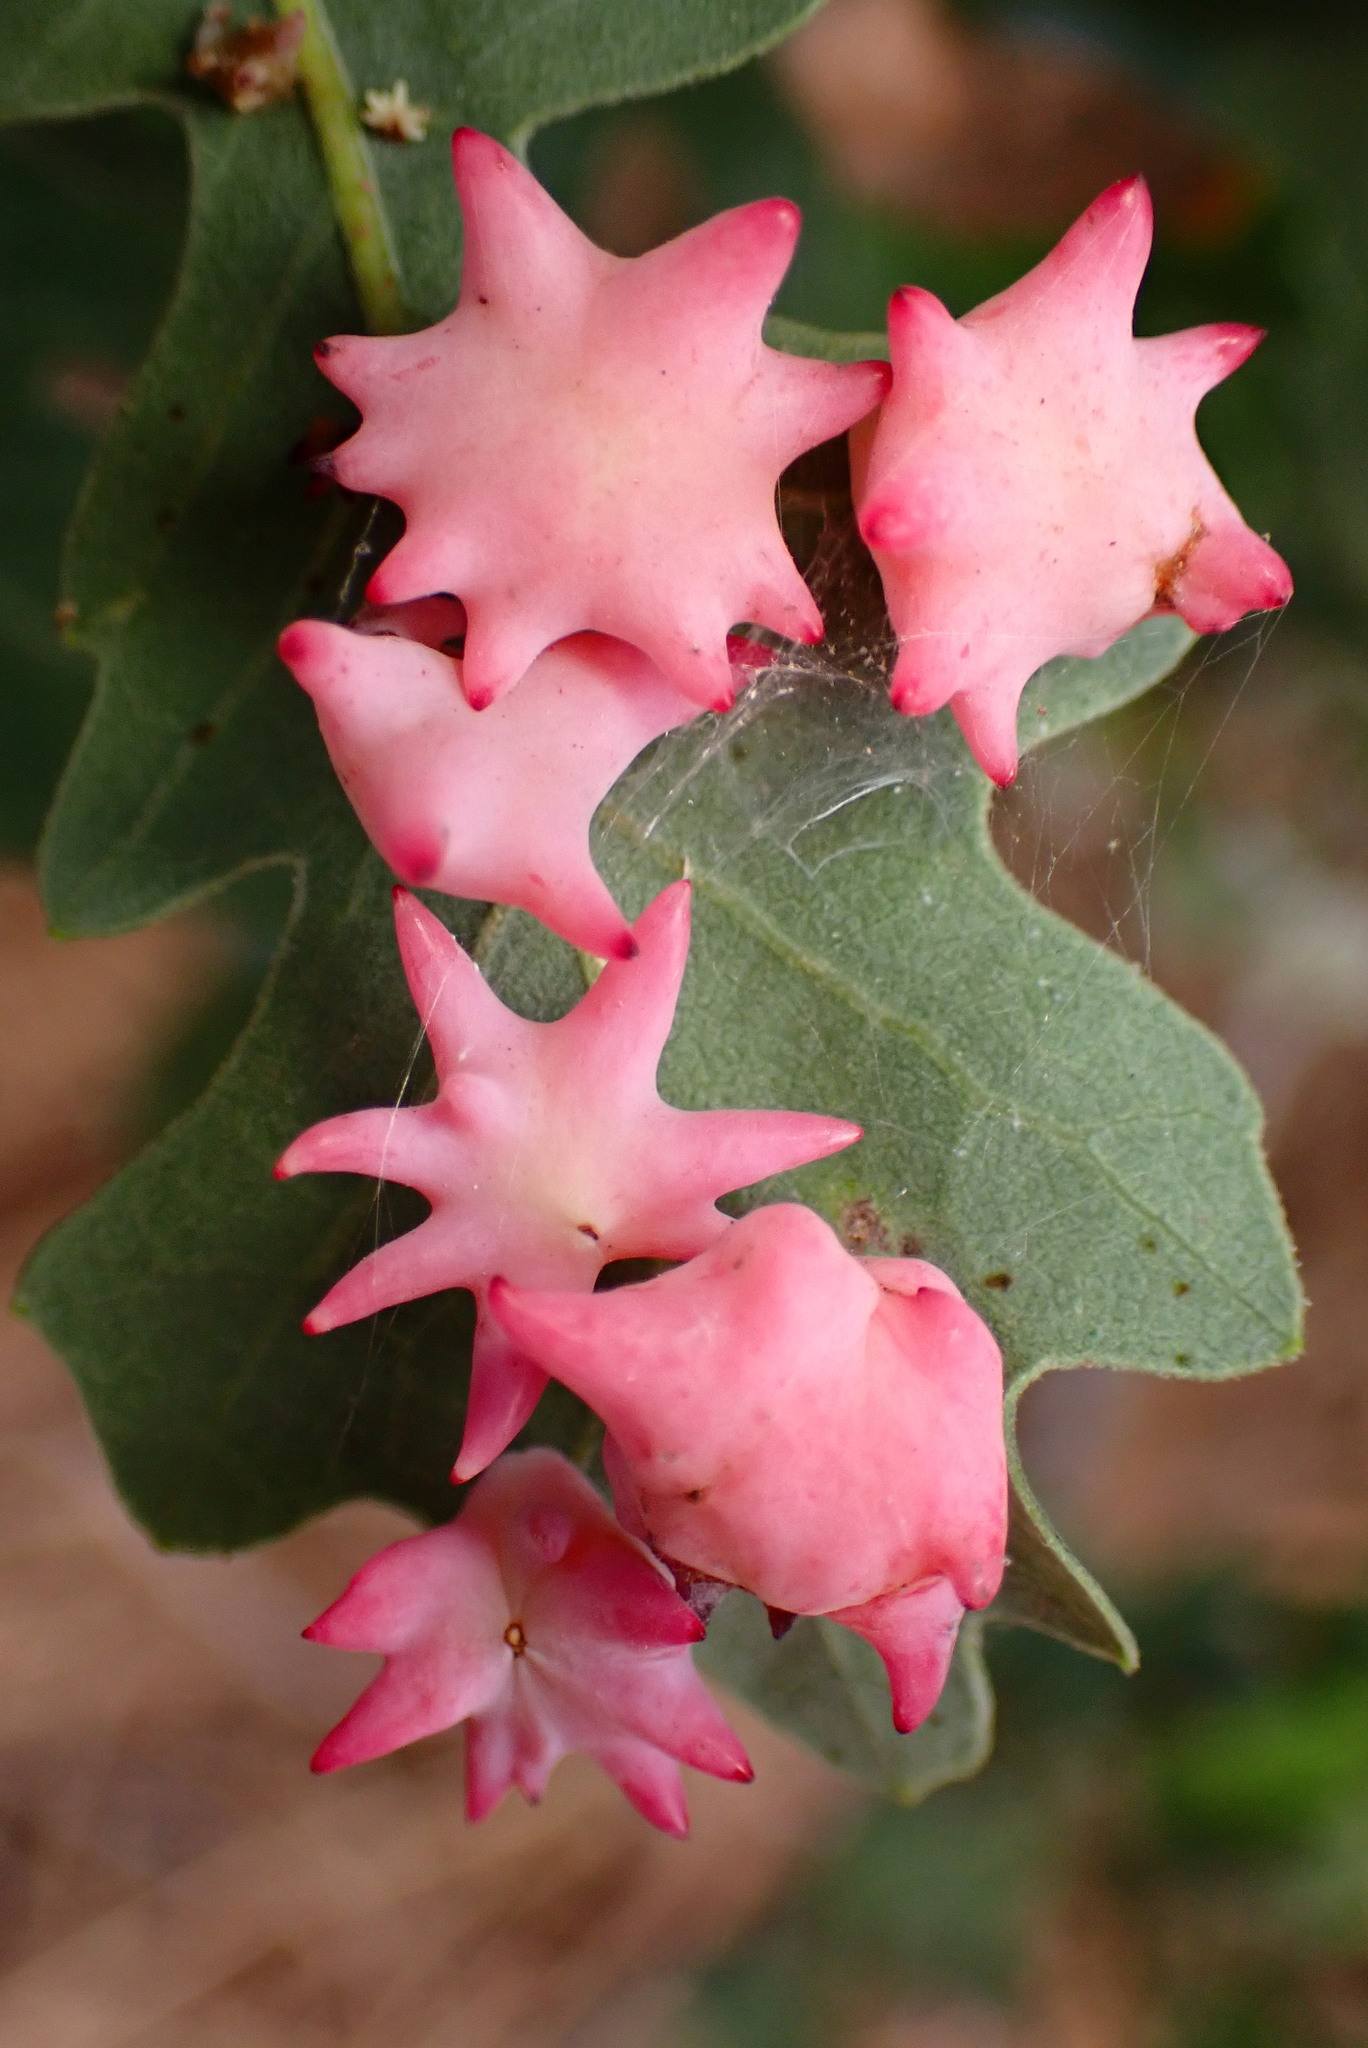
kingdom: Animalia
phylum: Arthropoda
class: Insecta
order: Hymenoptera
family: Cynipidae
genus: Cynips
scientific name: Cynips douglasi
